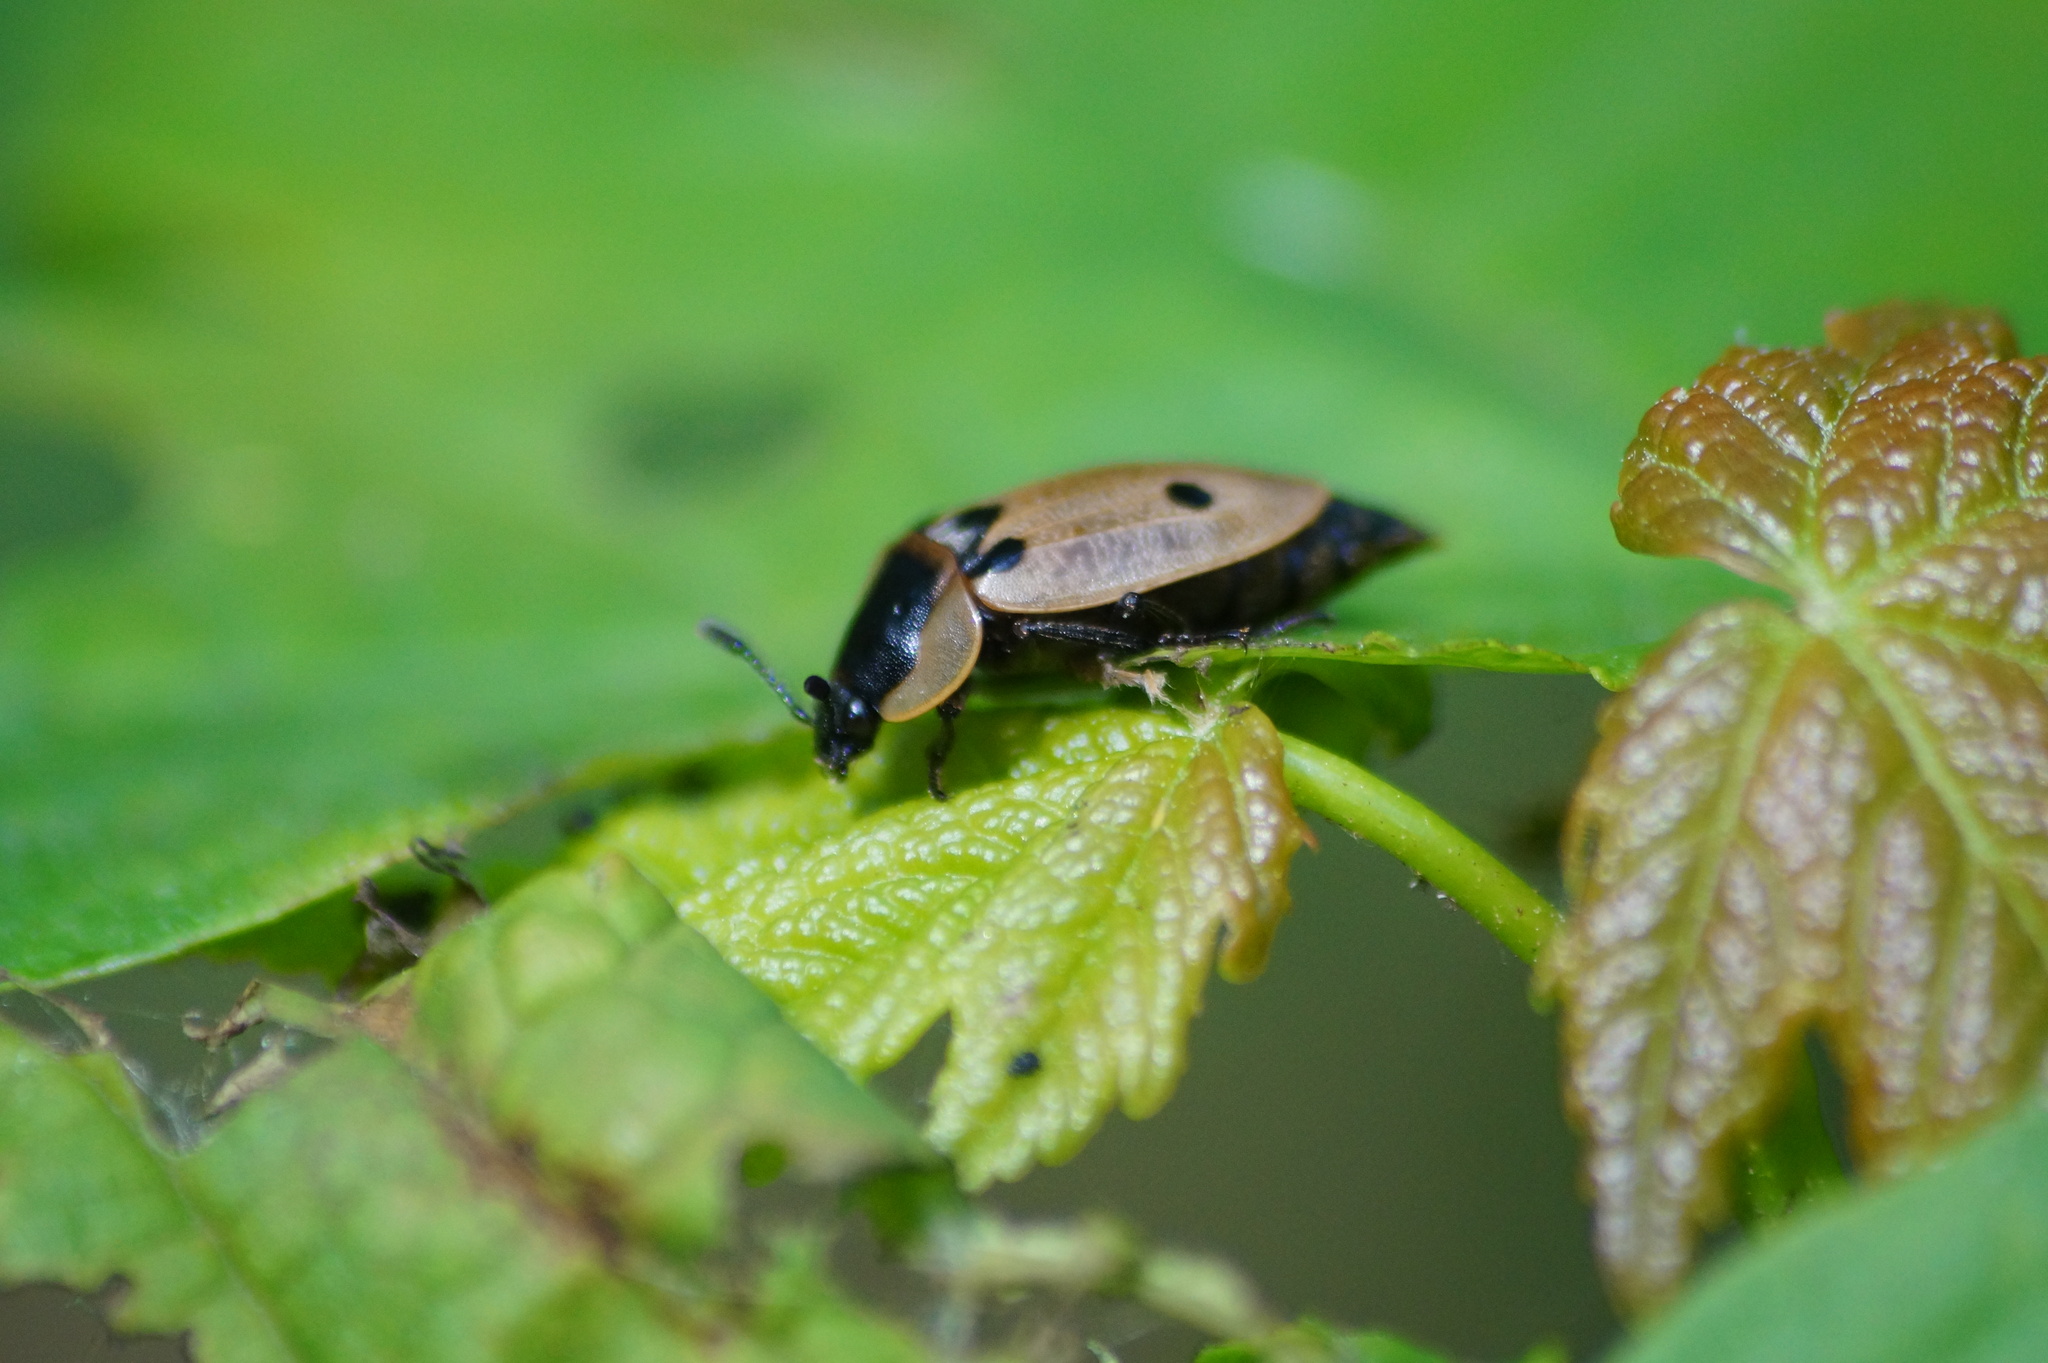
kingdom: Animalia
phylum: Arthropoda
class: Insecta
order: Coleoptera
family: Staphylinidae
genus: Dendroxena
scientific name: Dendroxena quadrimaculata
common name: Carrion beetle
